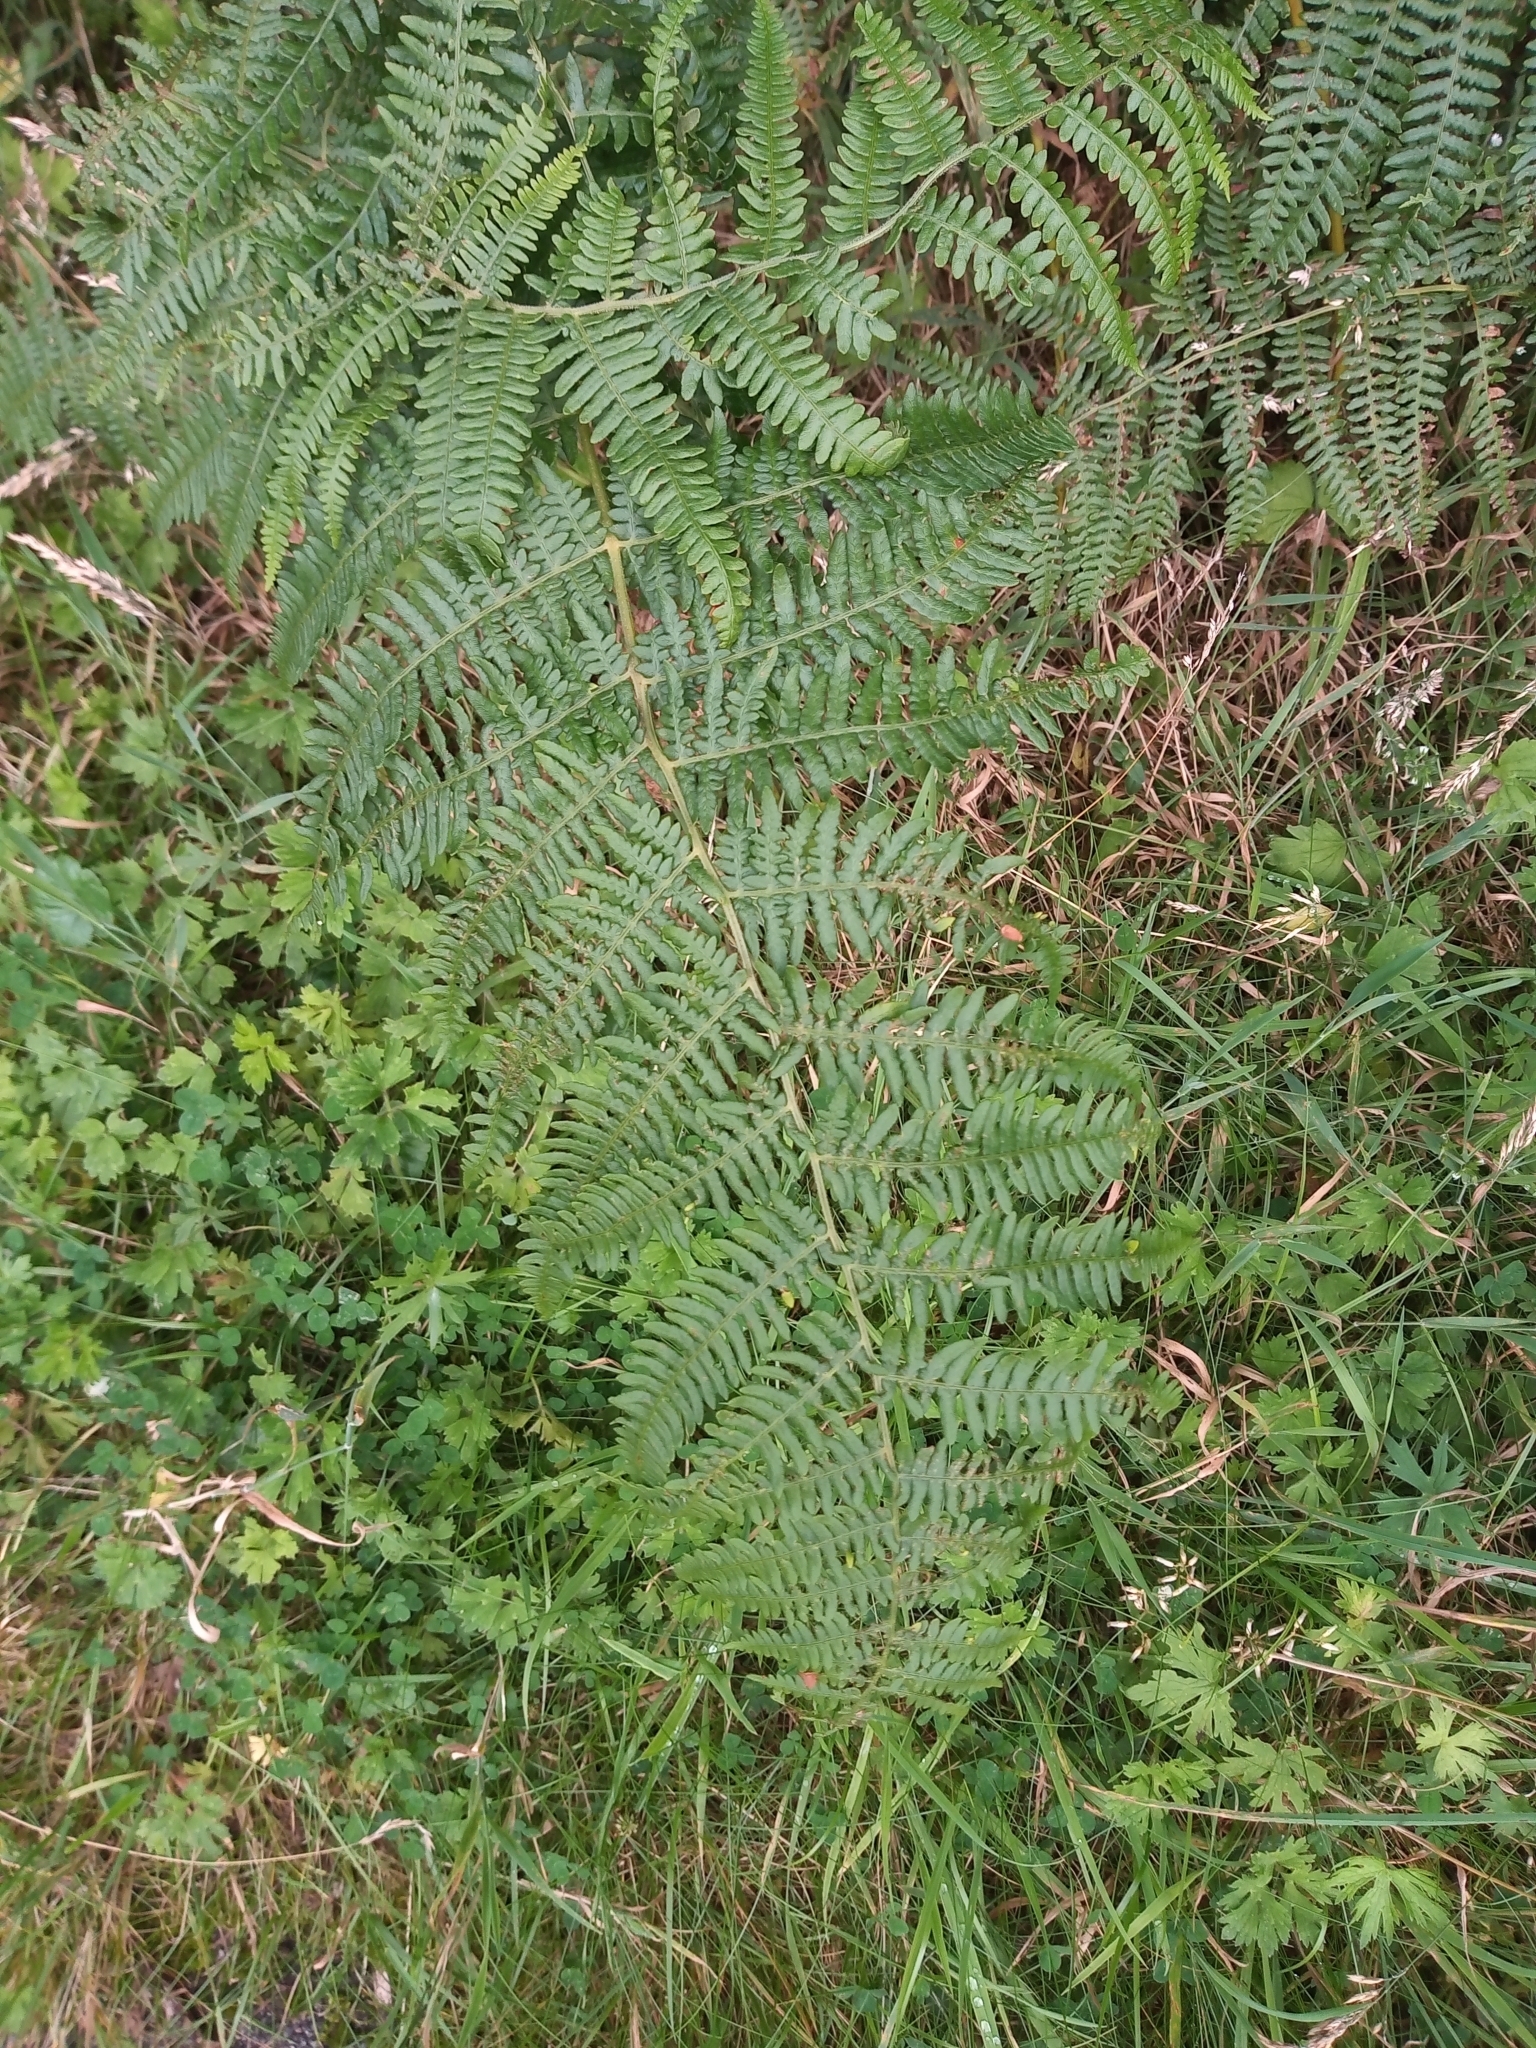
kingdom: Plantae
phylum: Tracheophyta
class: Polypodiopsida
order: Polypodiales
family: Dennstaedtiaceae
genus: Pteridium
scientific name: Pteridium aquilinum
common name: Bracken
